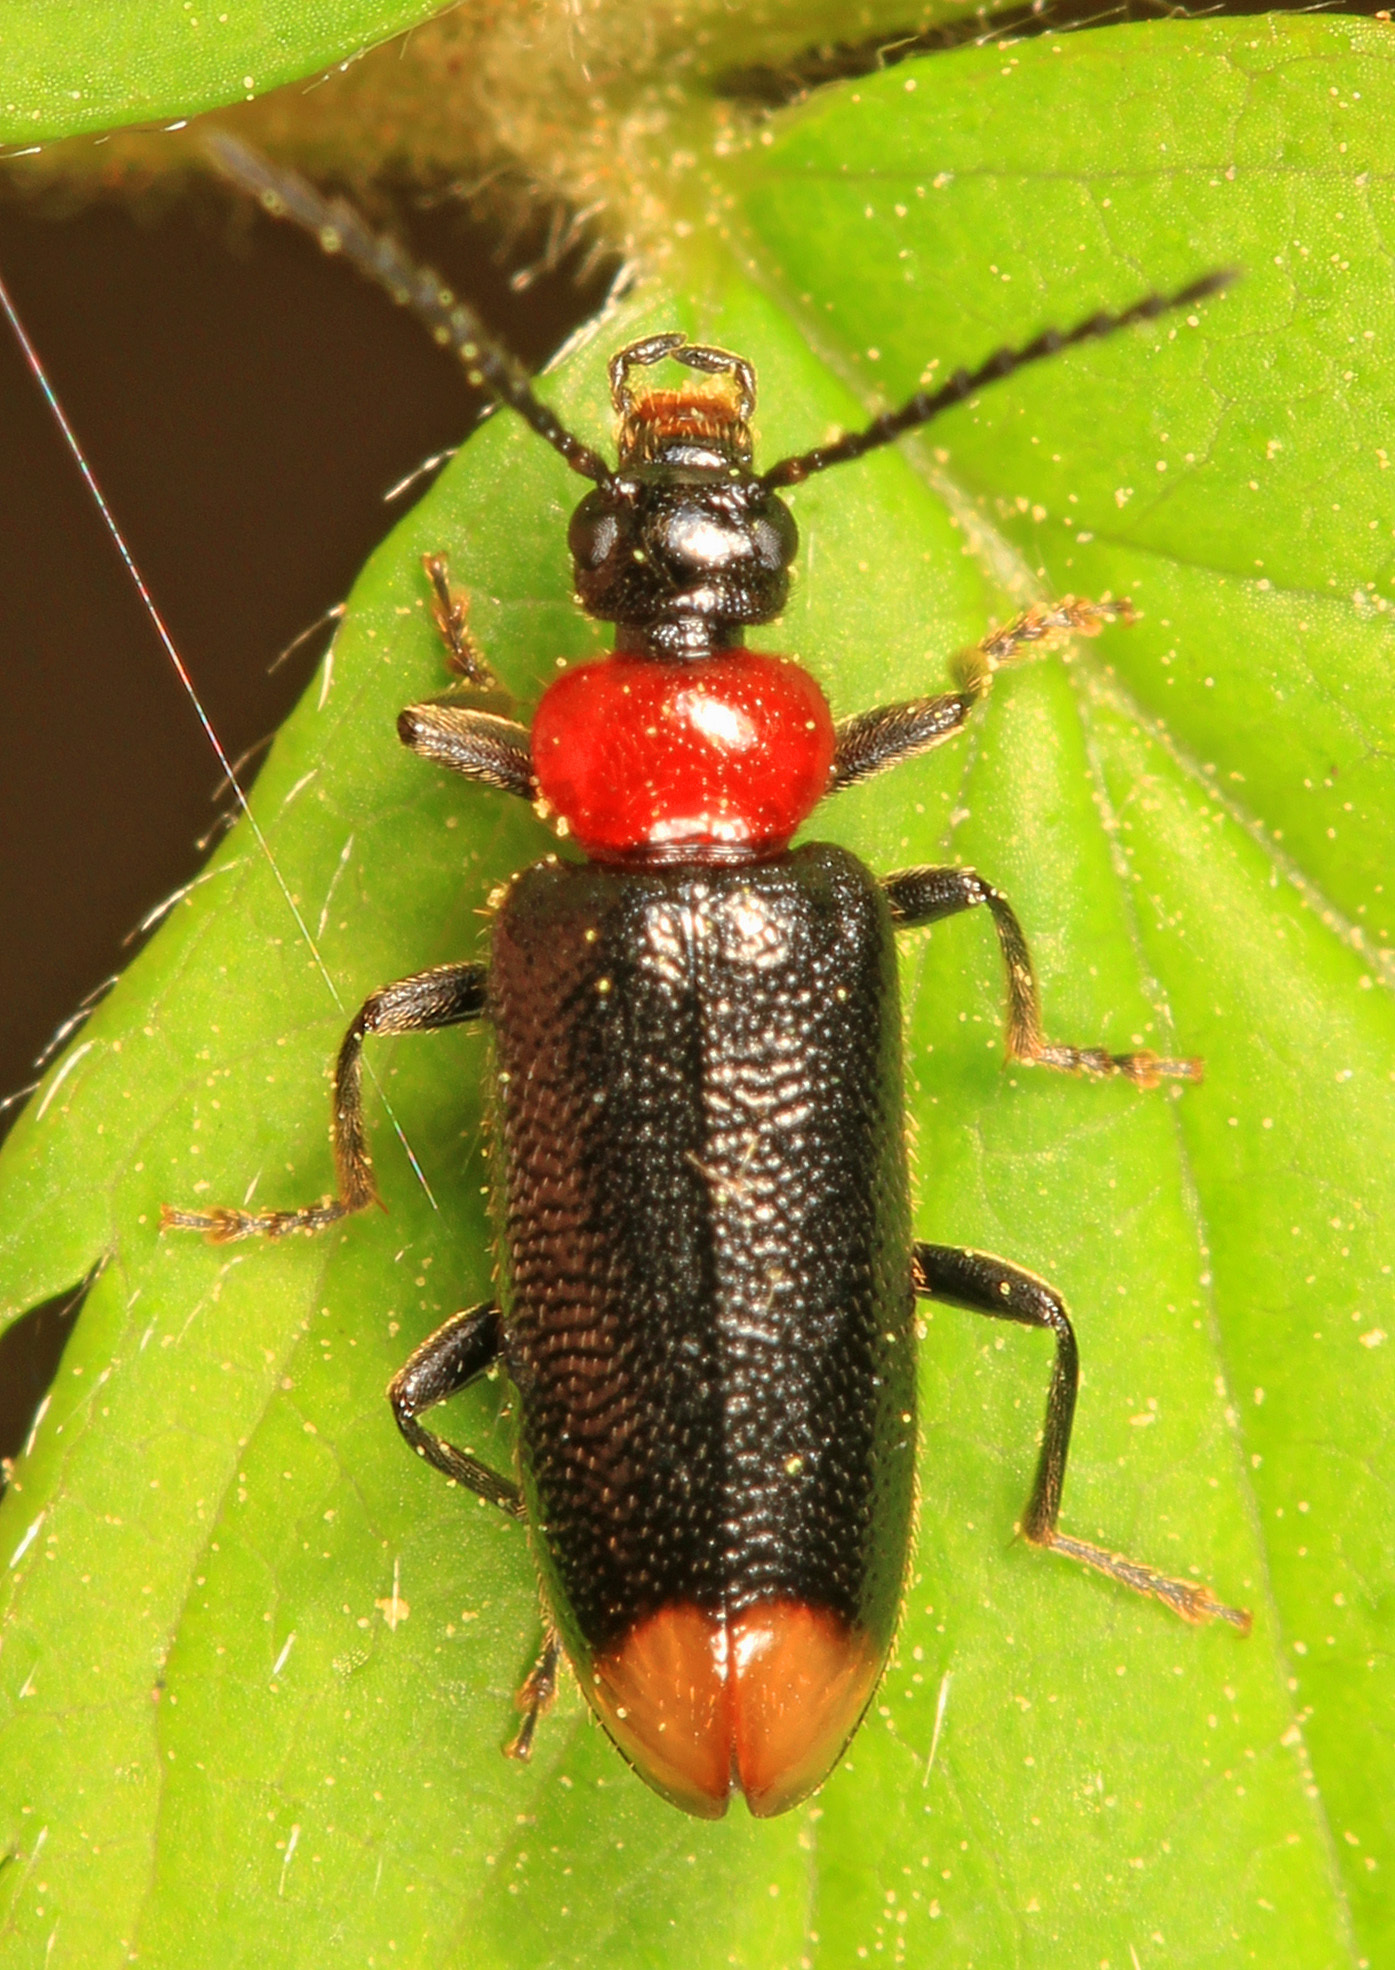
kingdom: Animalia
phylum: Arthropoda
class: Insecta
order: Coleoptera
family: Pyrochroidae
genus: Pedilus
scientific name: Pedilus terminalis
